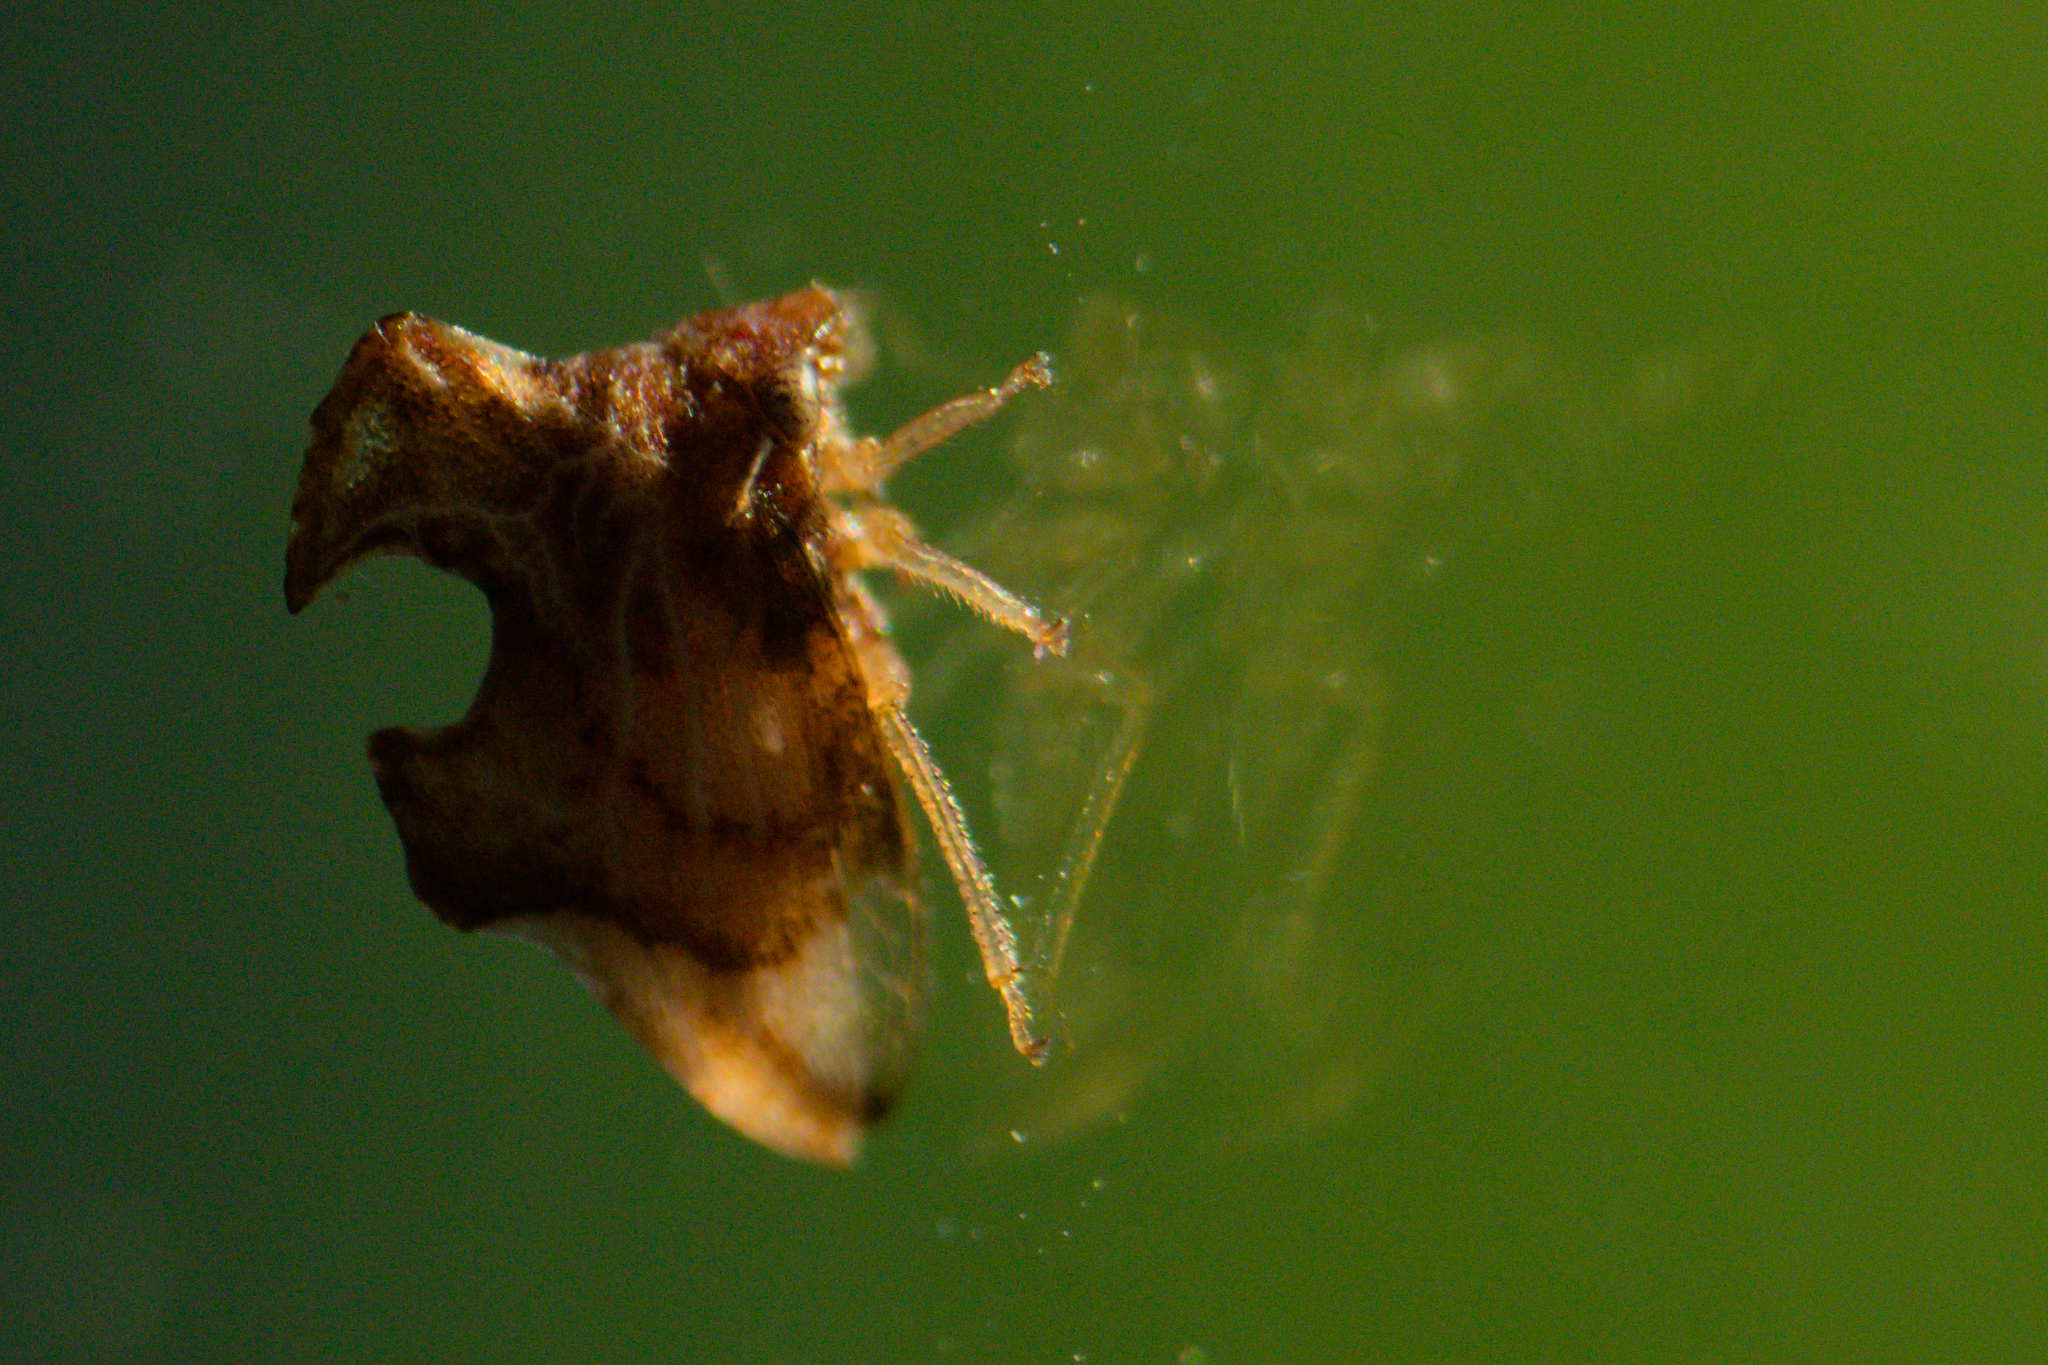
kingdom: Animalia
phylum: Arthropoda
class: Insecta
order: Hemiptera
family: Membracidae
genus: Entylia
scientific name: Entylia carinata
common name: Keeled treehopper
